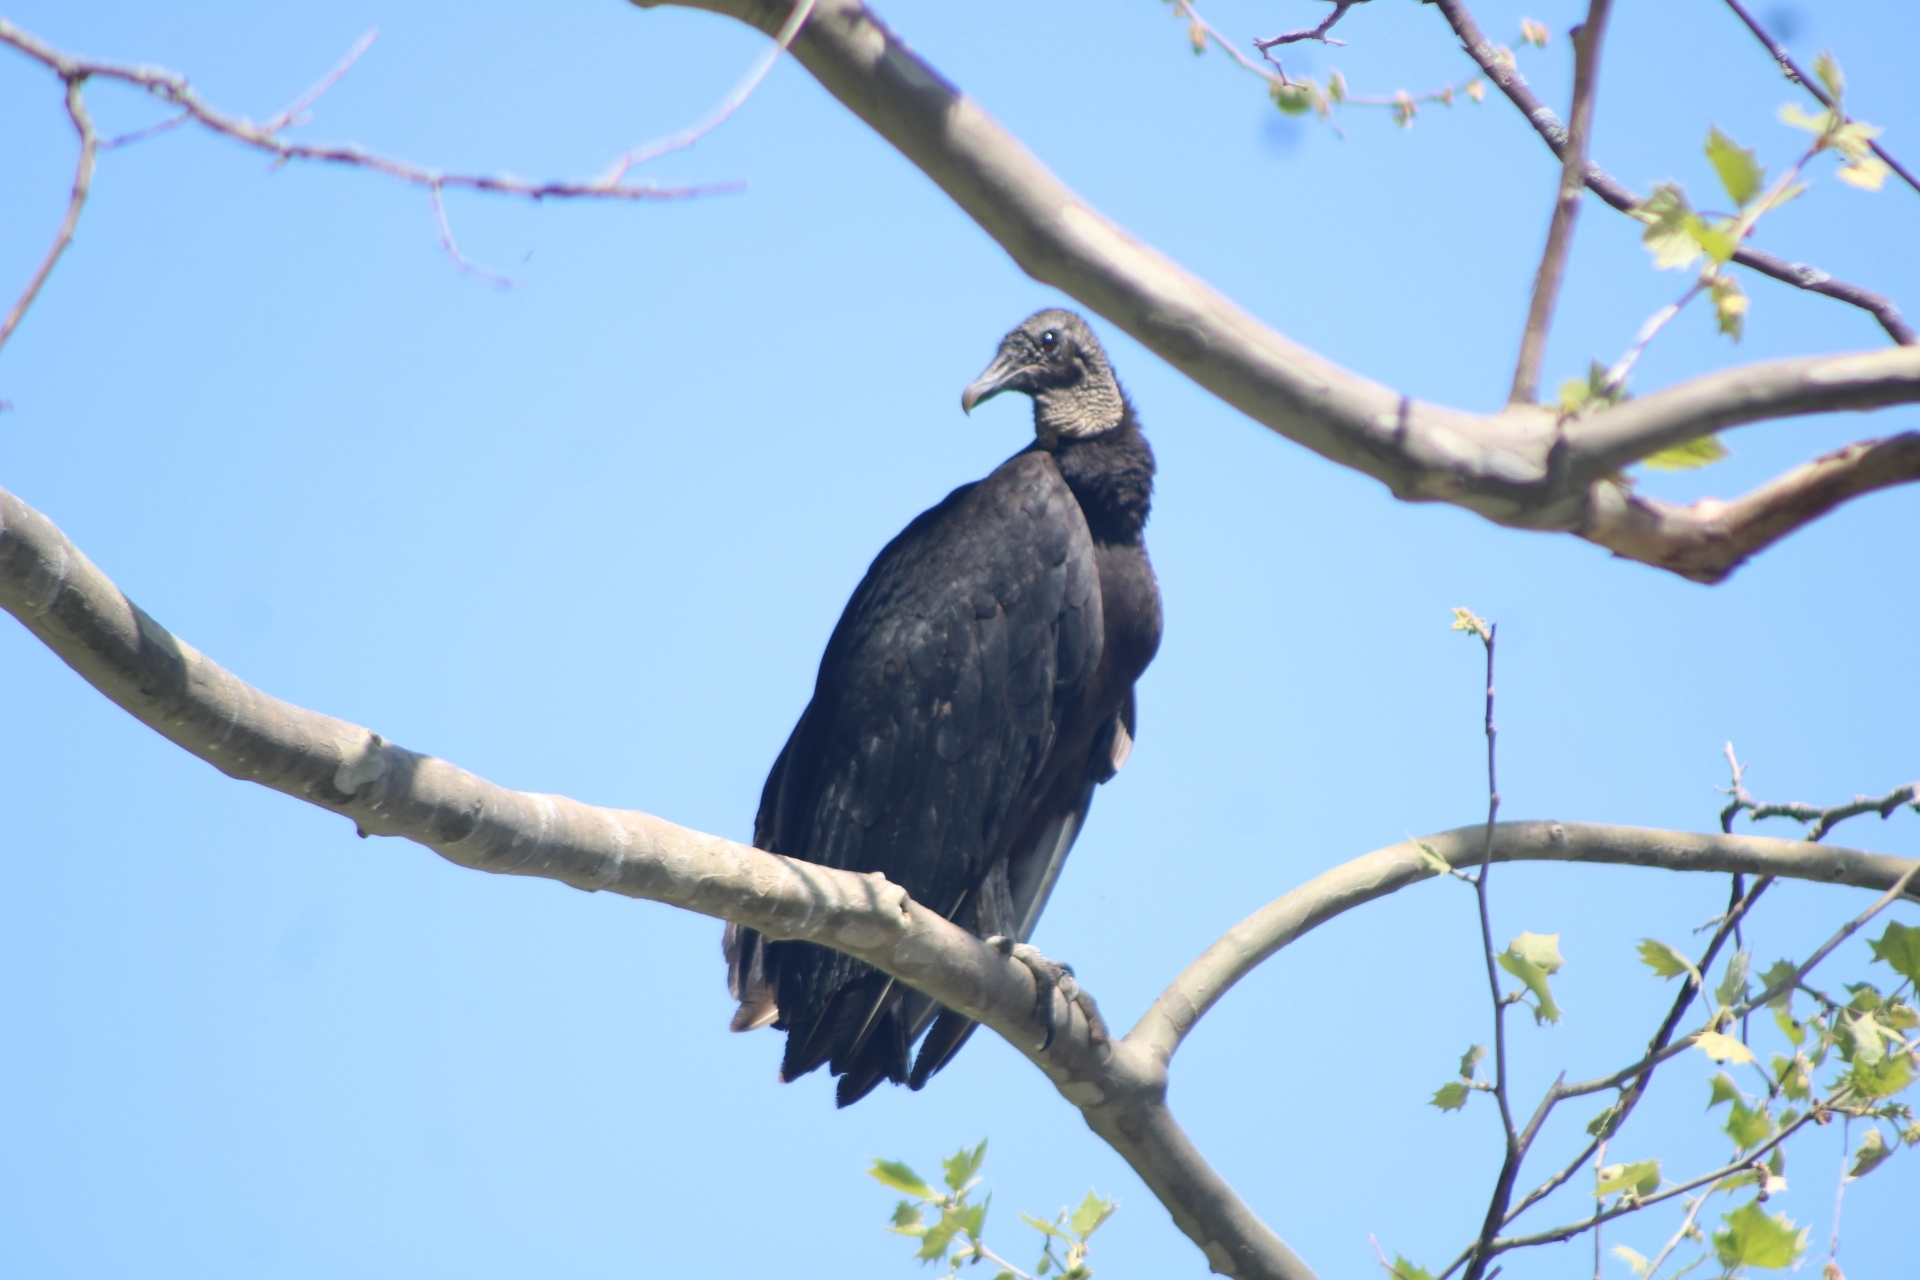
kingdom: Animalia
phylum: Chordata
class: Aves
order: Accipitriformes
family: Cathartidae
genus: Coragyps
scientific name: Coragyps atratus
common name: Black vulture
